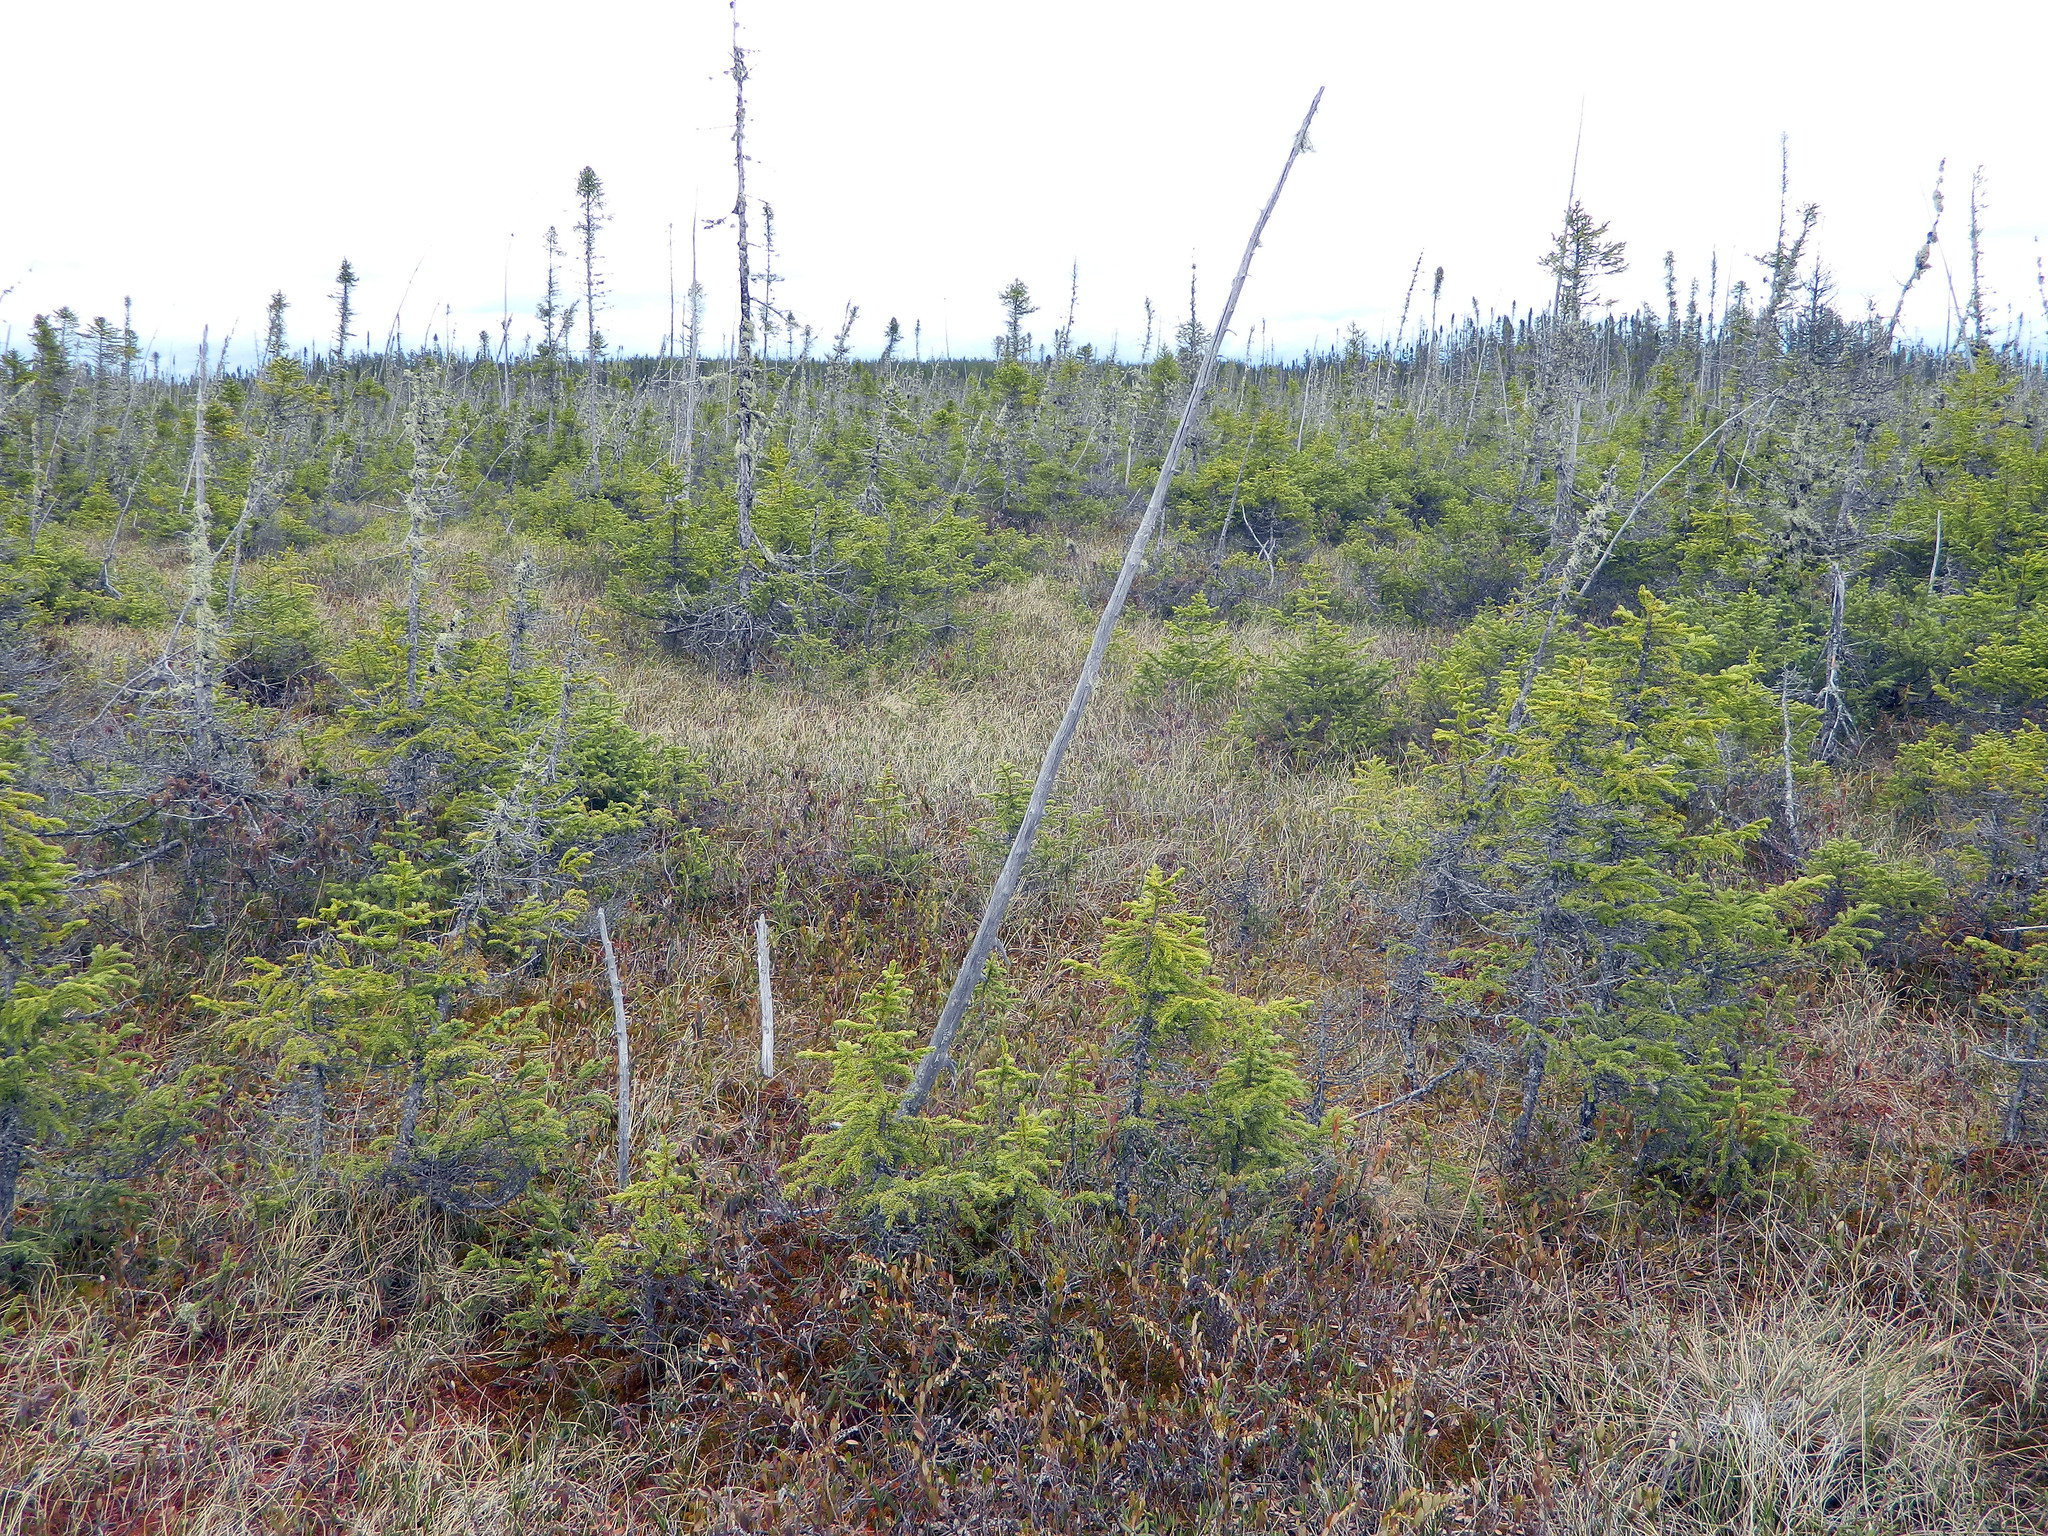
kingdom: Plantae
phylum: Tracheophyta
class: Pinopsida
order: Pinales
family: Pinaceae
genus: Picea
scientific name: Picea mariana
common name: Black spruce
